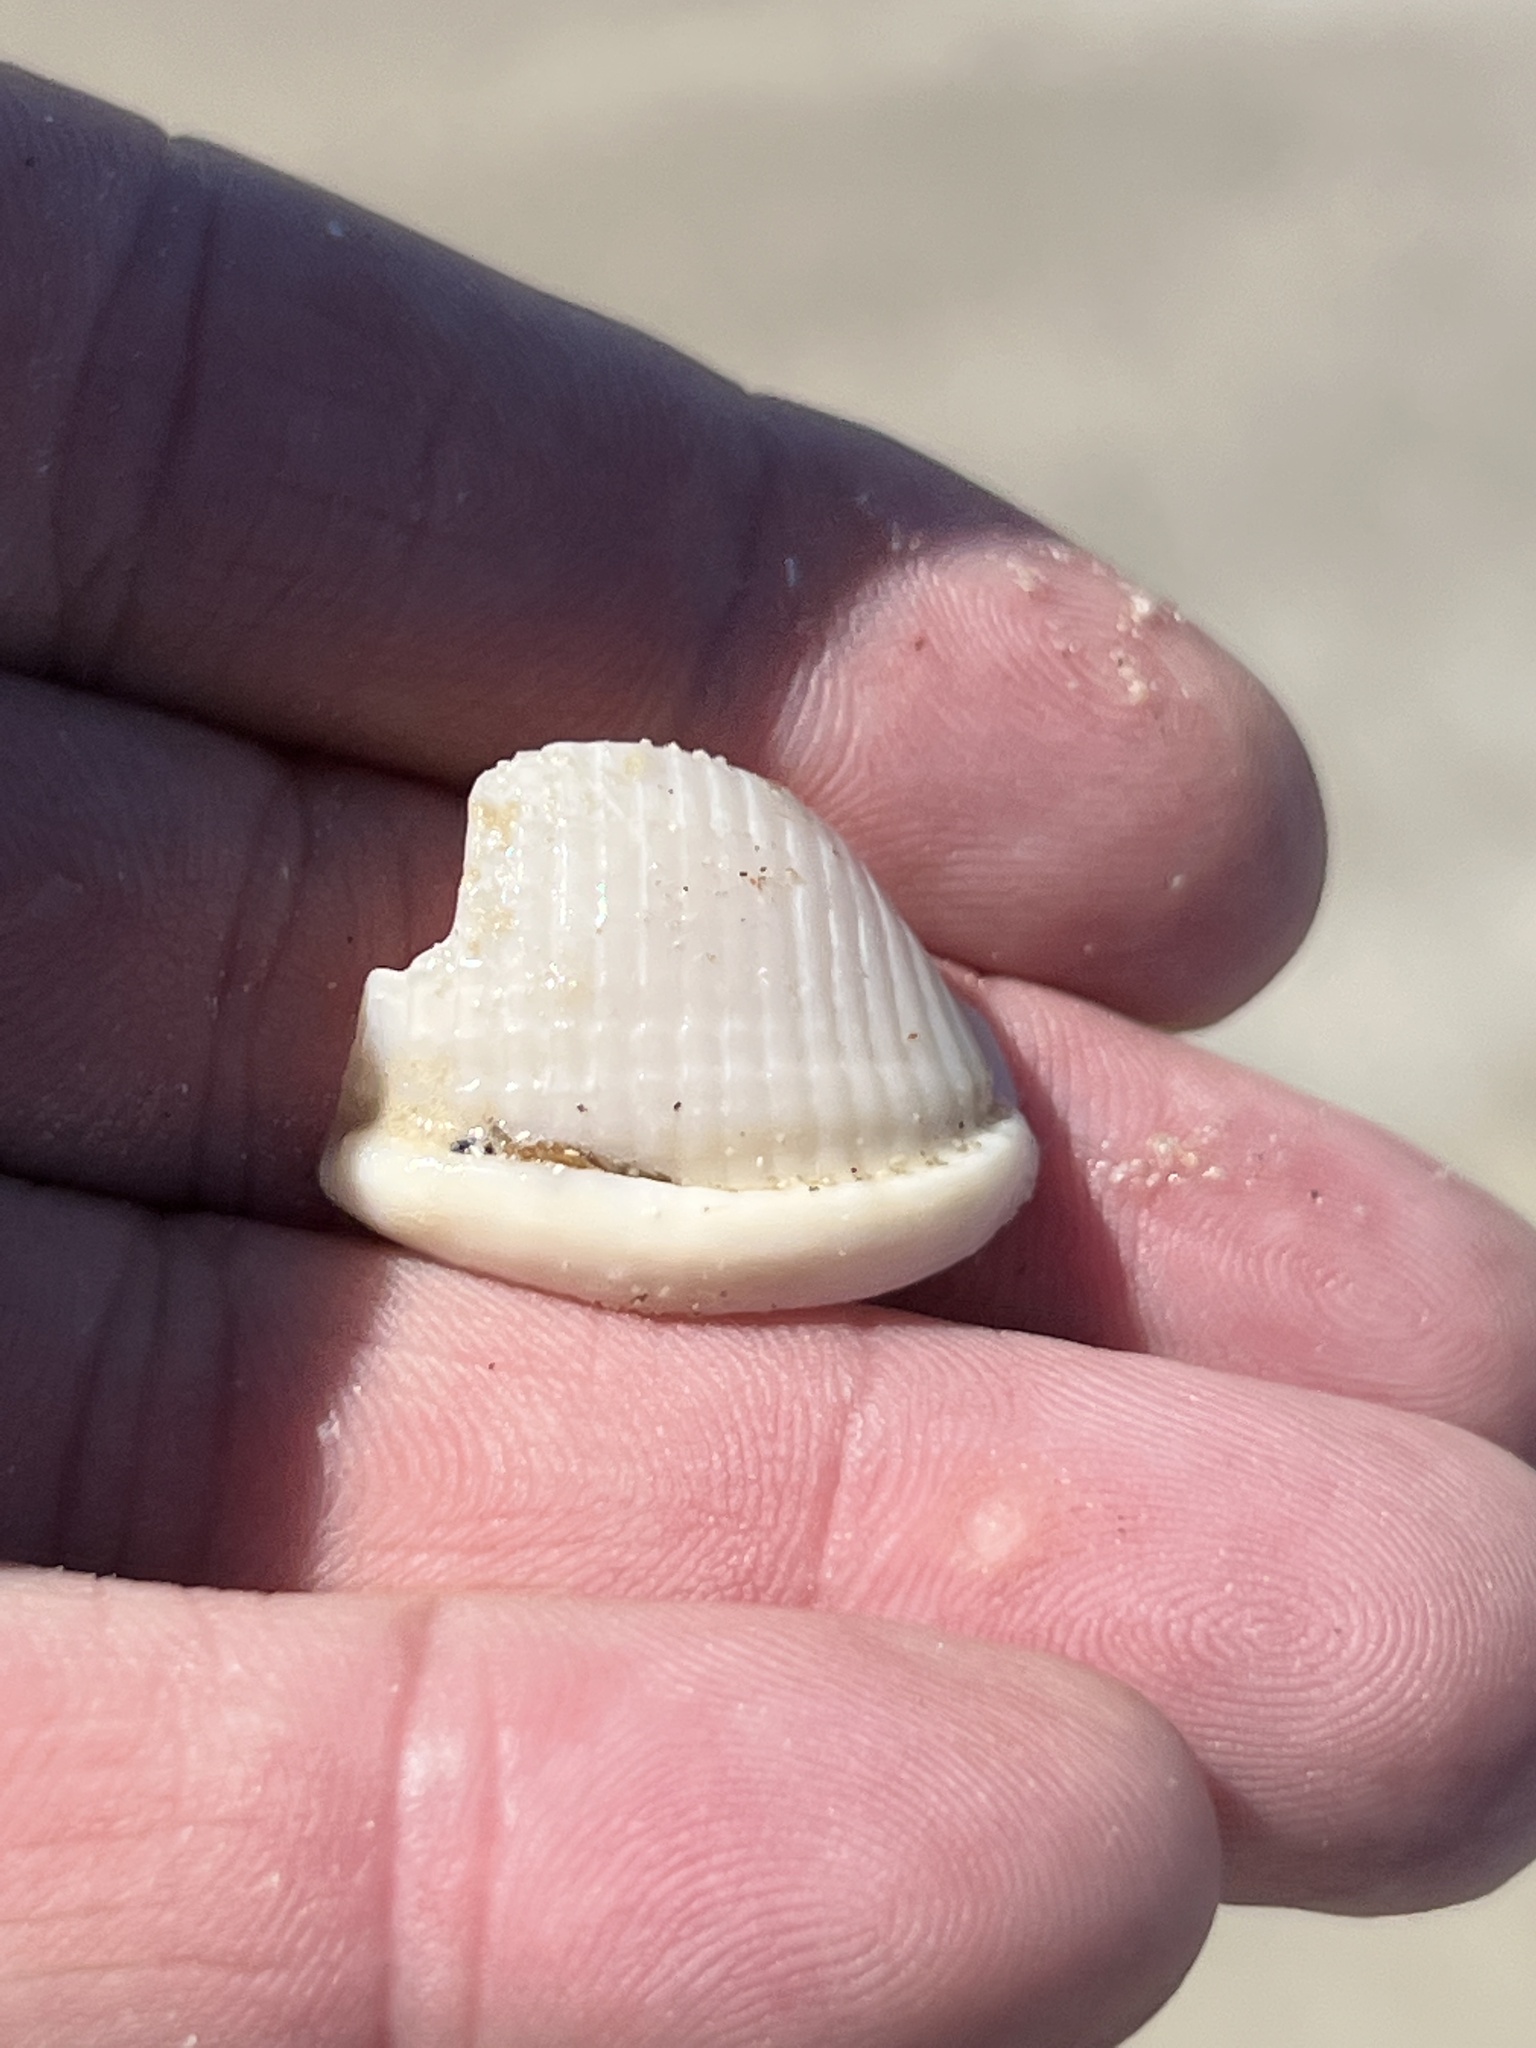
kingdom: Animalia
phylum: Mollusca
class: Gastropoda
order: Littorinimorpha
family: Cassidae
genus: Semicassis
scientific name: Semicassis granulata
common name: Scotch bonnet
